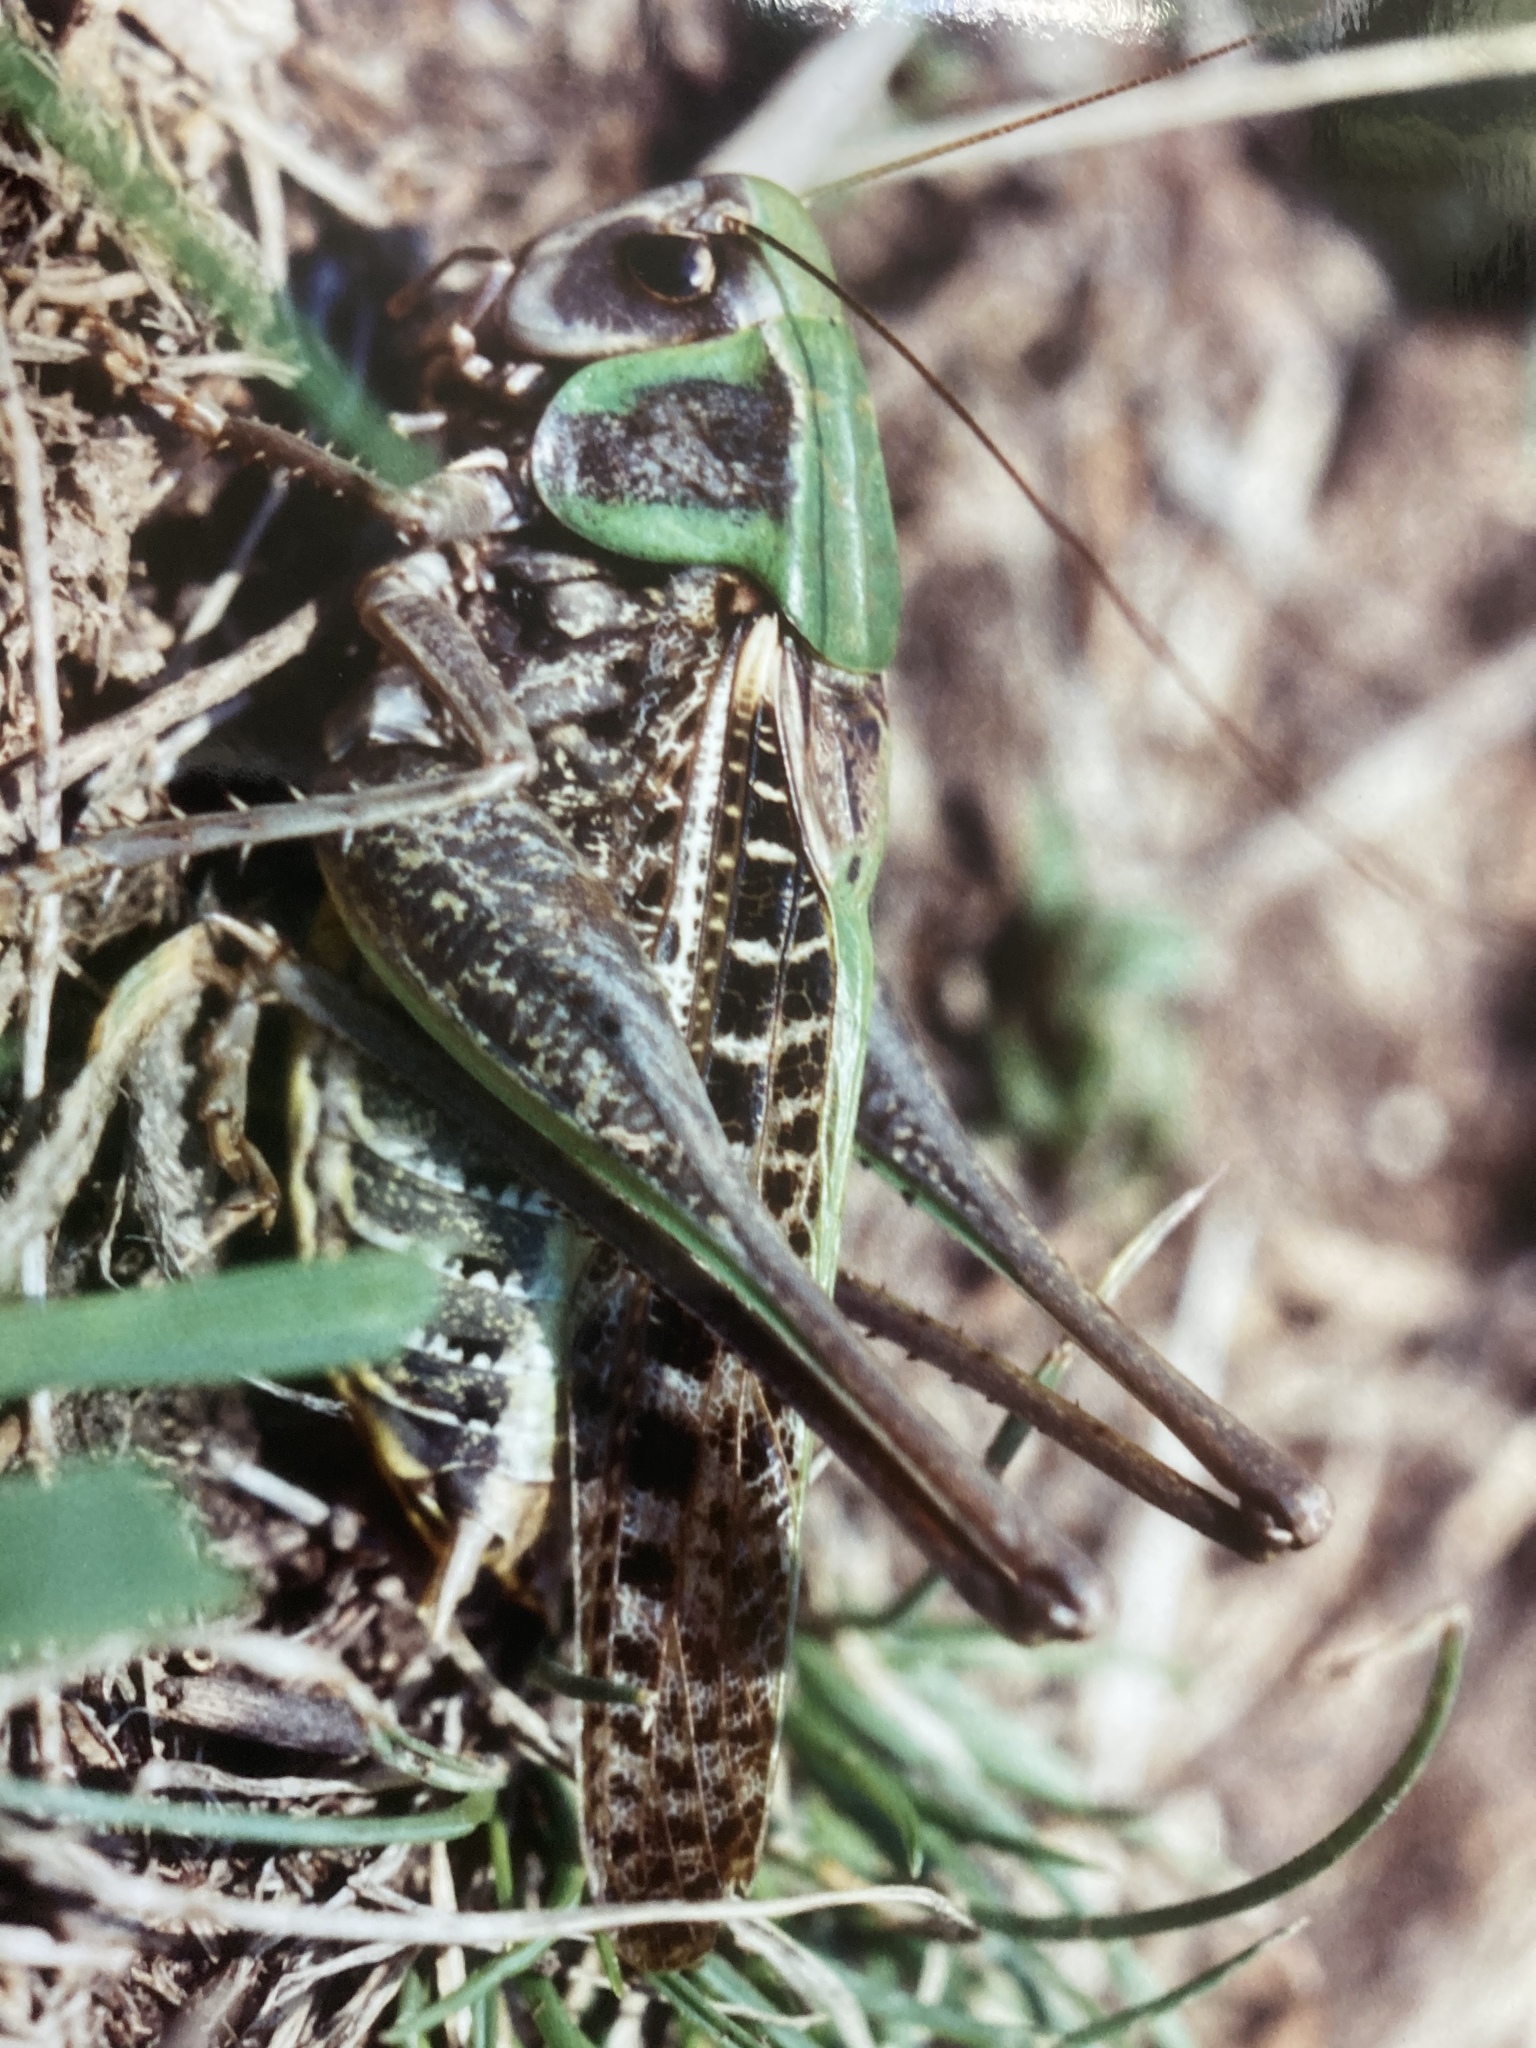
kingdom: Animalia
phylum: Arthropoda
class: Insecta
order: Orthoptera
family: Tettigoniidae
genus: Decticus
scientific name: Decticus verrucivorus
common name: Wart-biter
